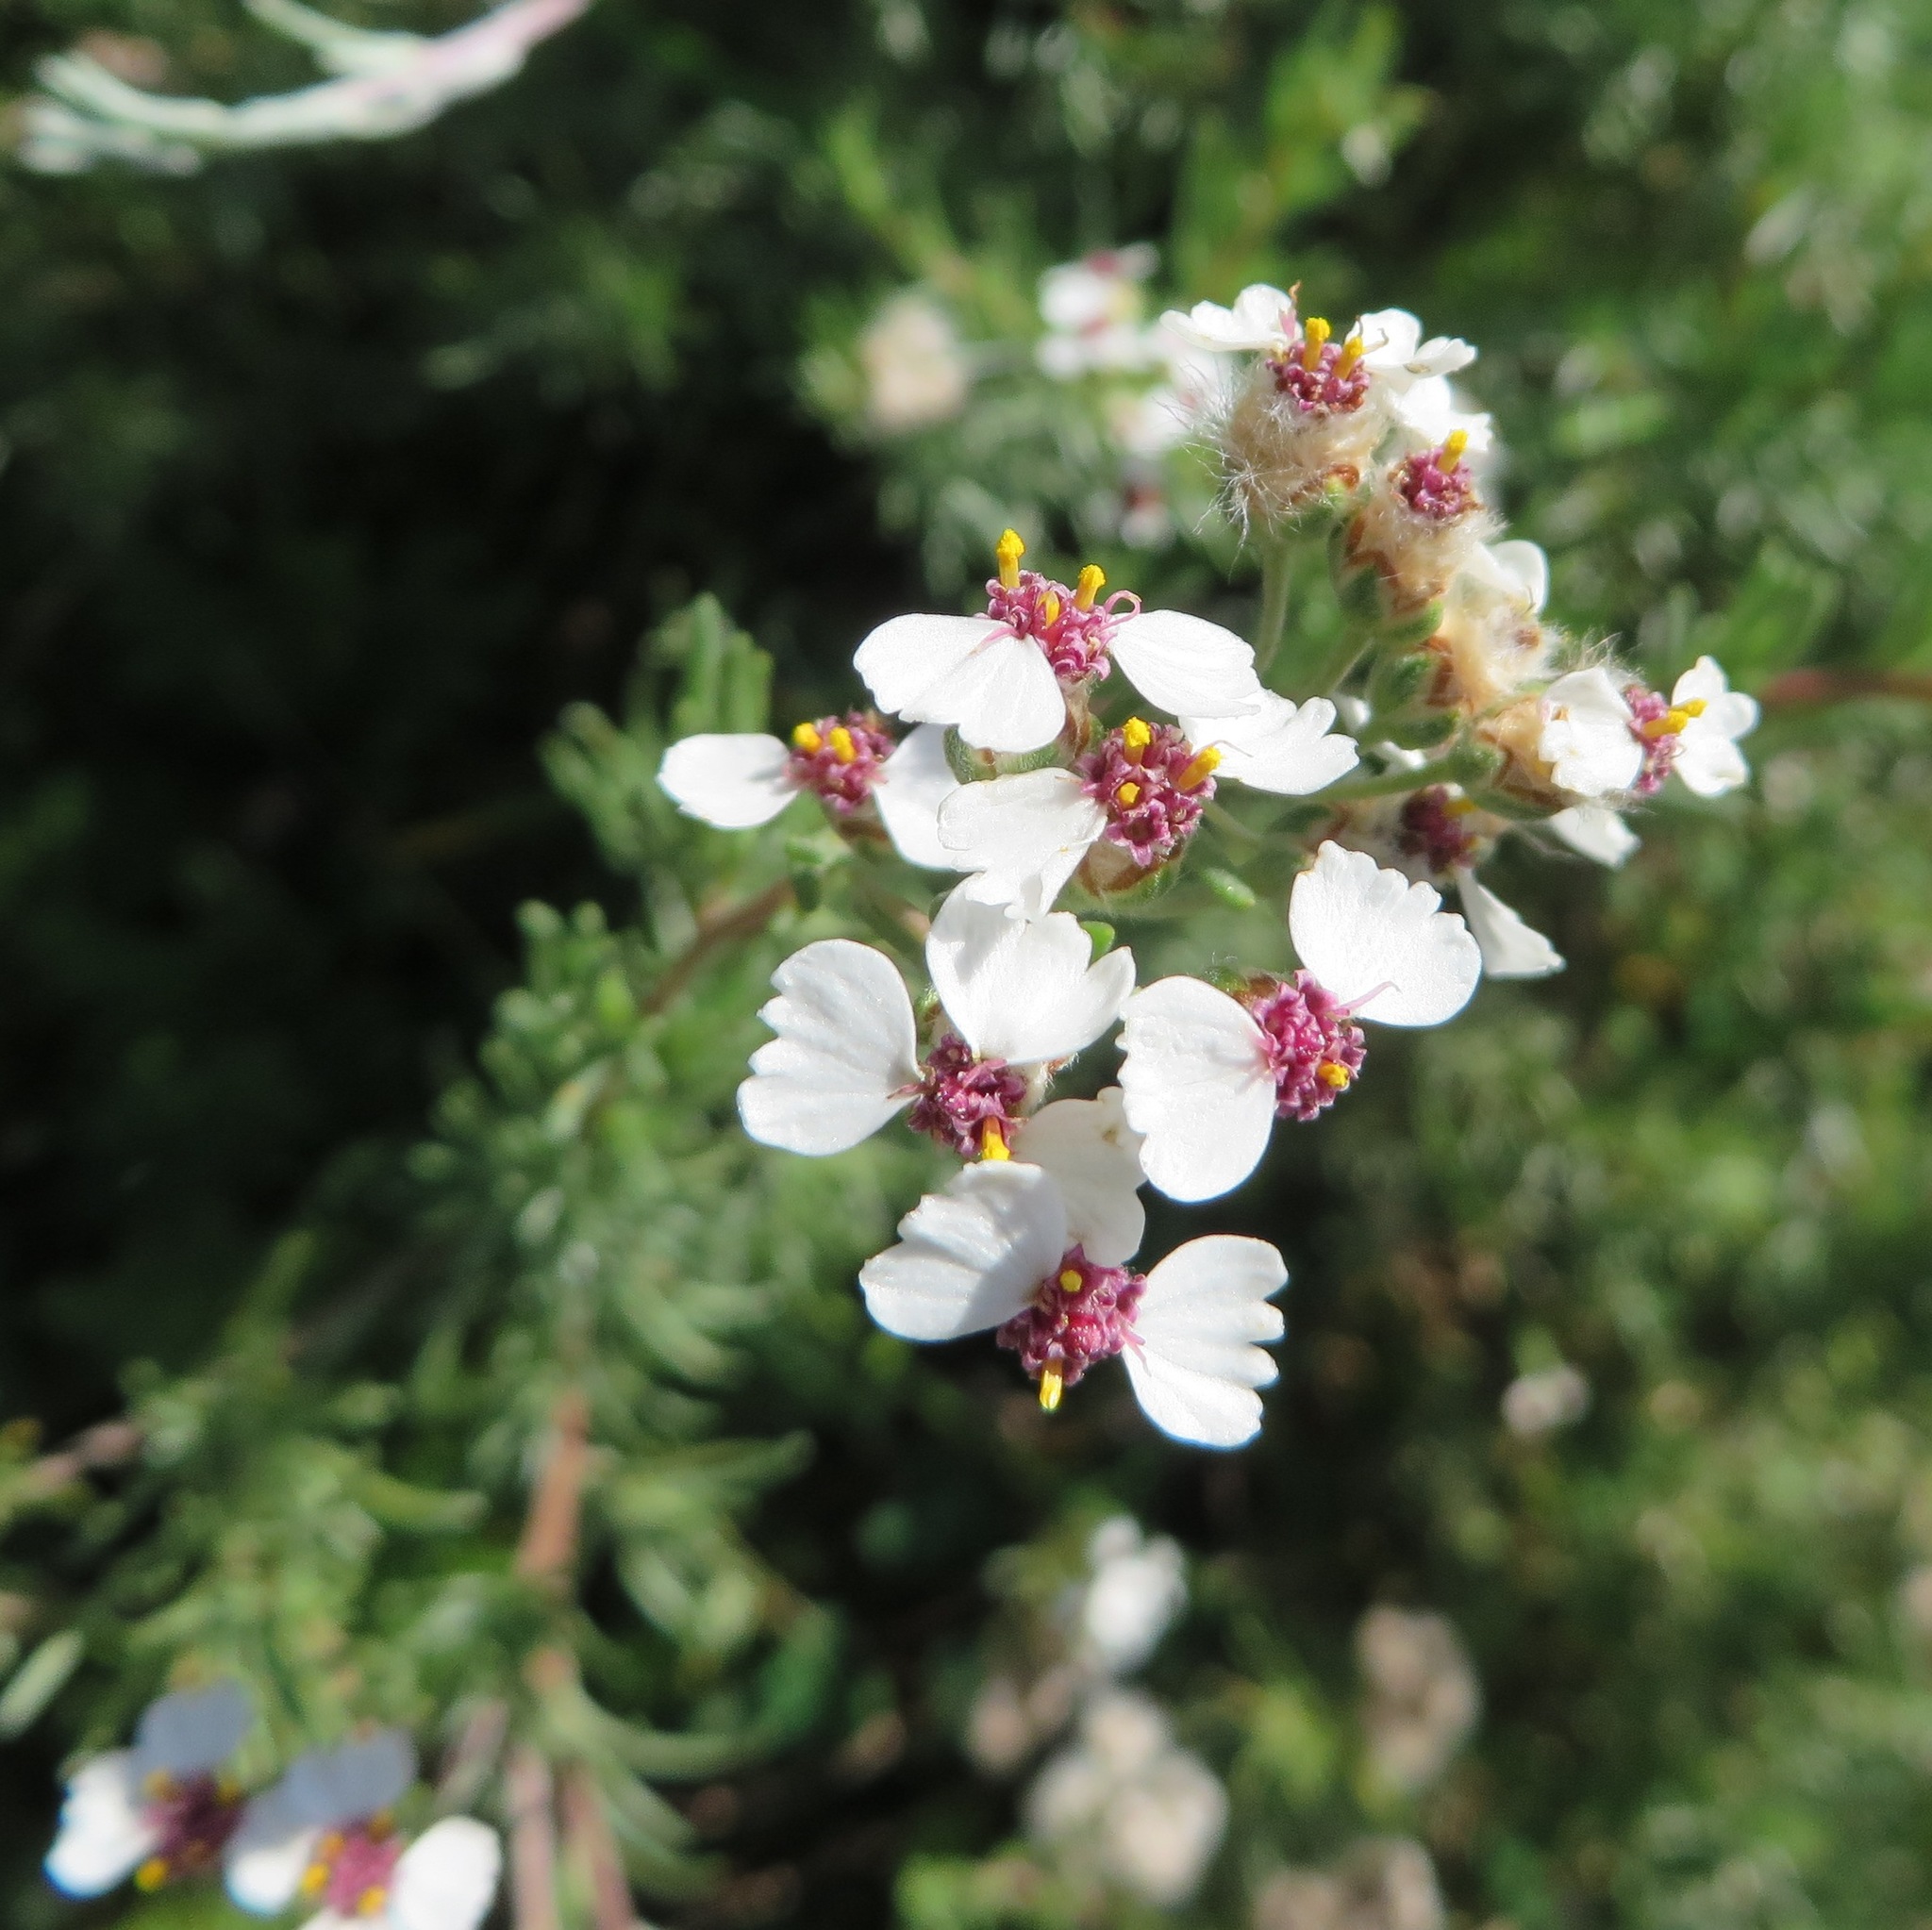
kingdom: Plantae
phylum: Tracheophyta
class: Magnoliopsida
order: Asterales
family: Asteraceae
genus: Eriocephalus
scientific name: Eriocephalus africanus
